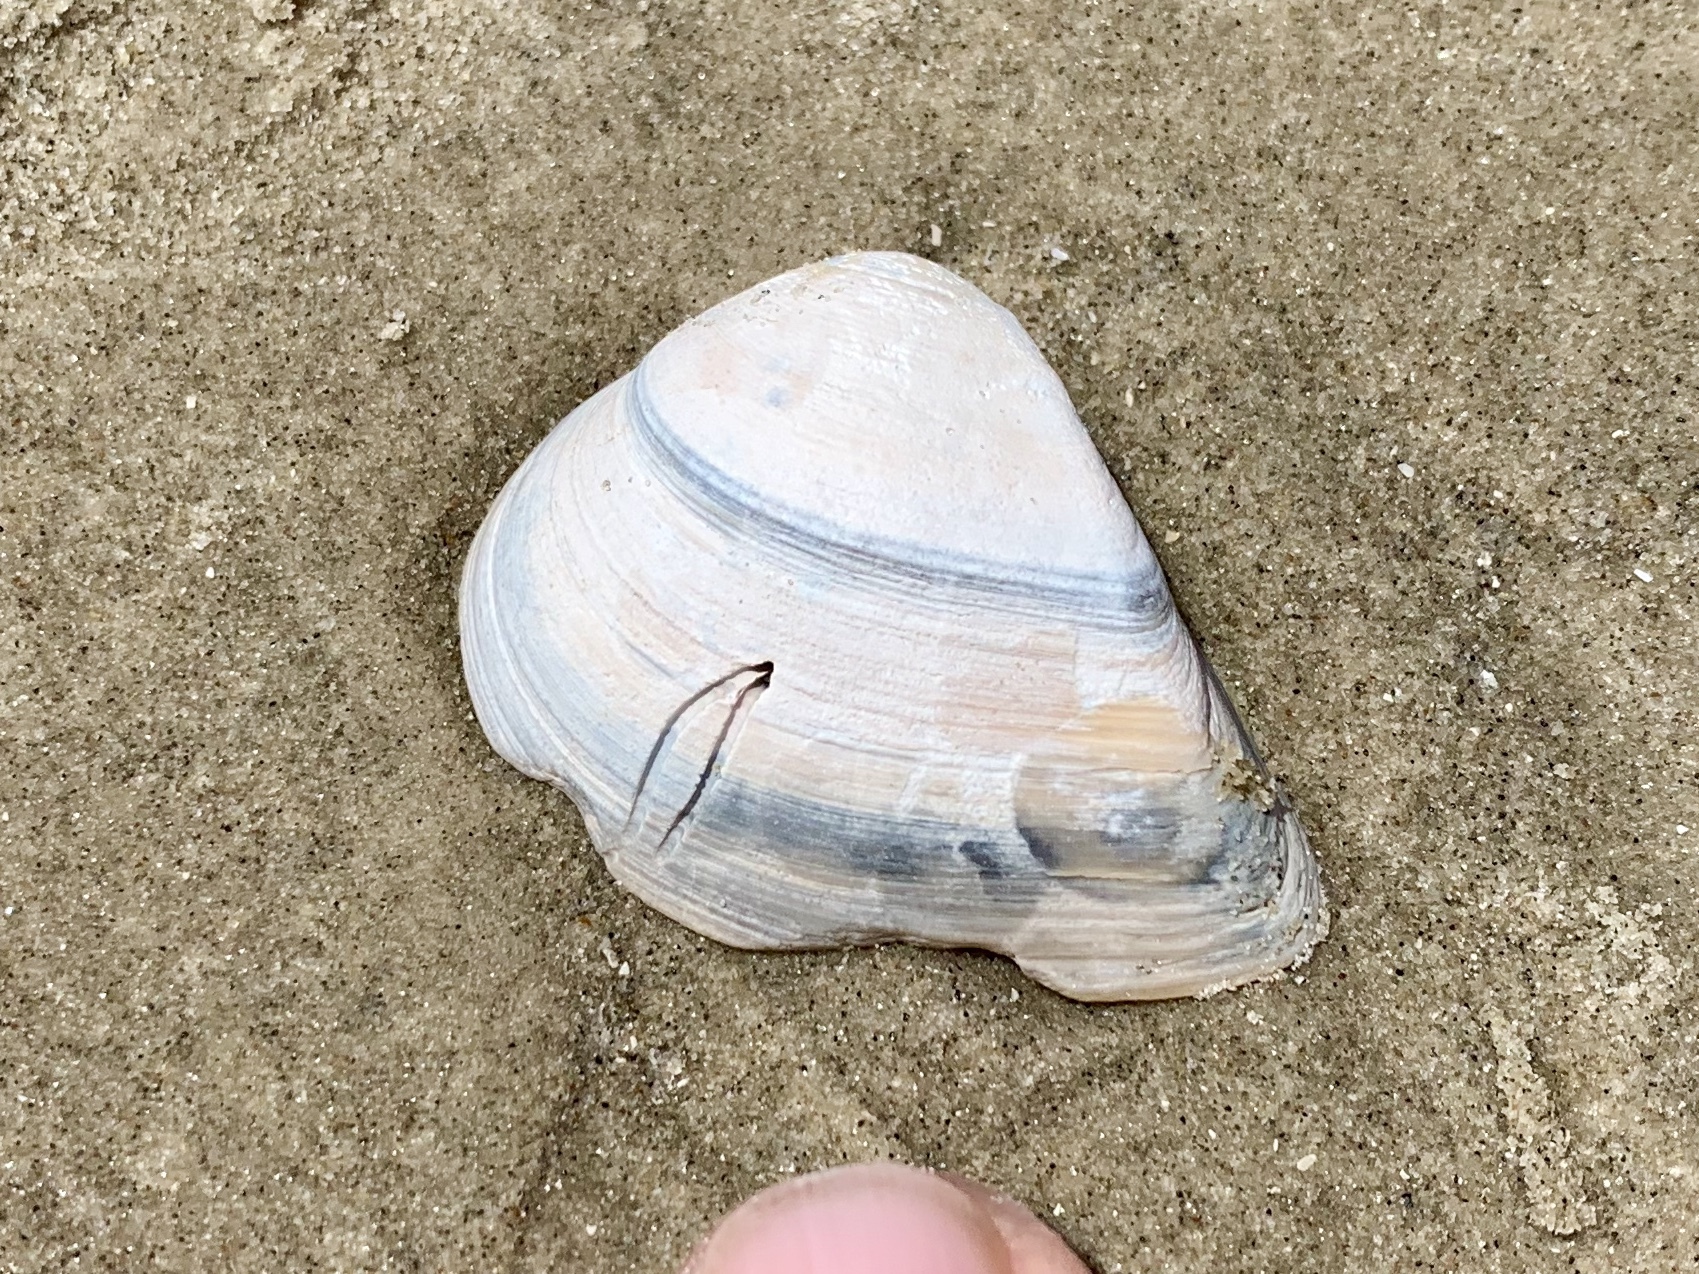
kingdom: Animalia
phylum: Mollusca
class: Bivalvia
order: Venerida
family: Mactridae
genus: Rangia
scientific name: Rangia flexuosa
